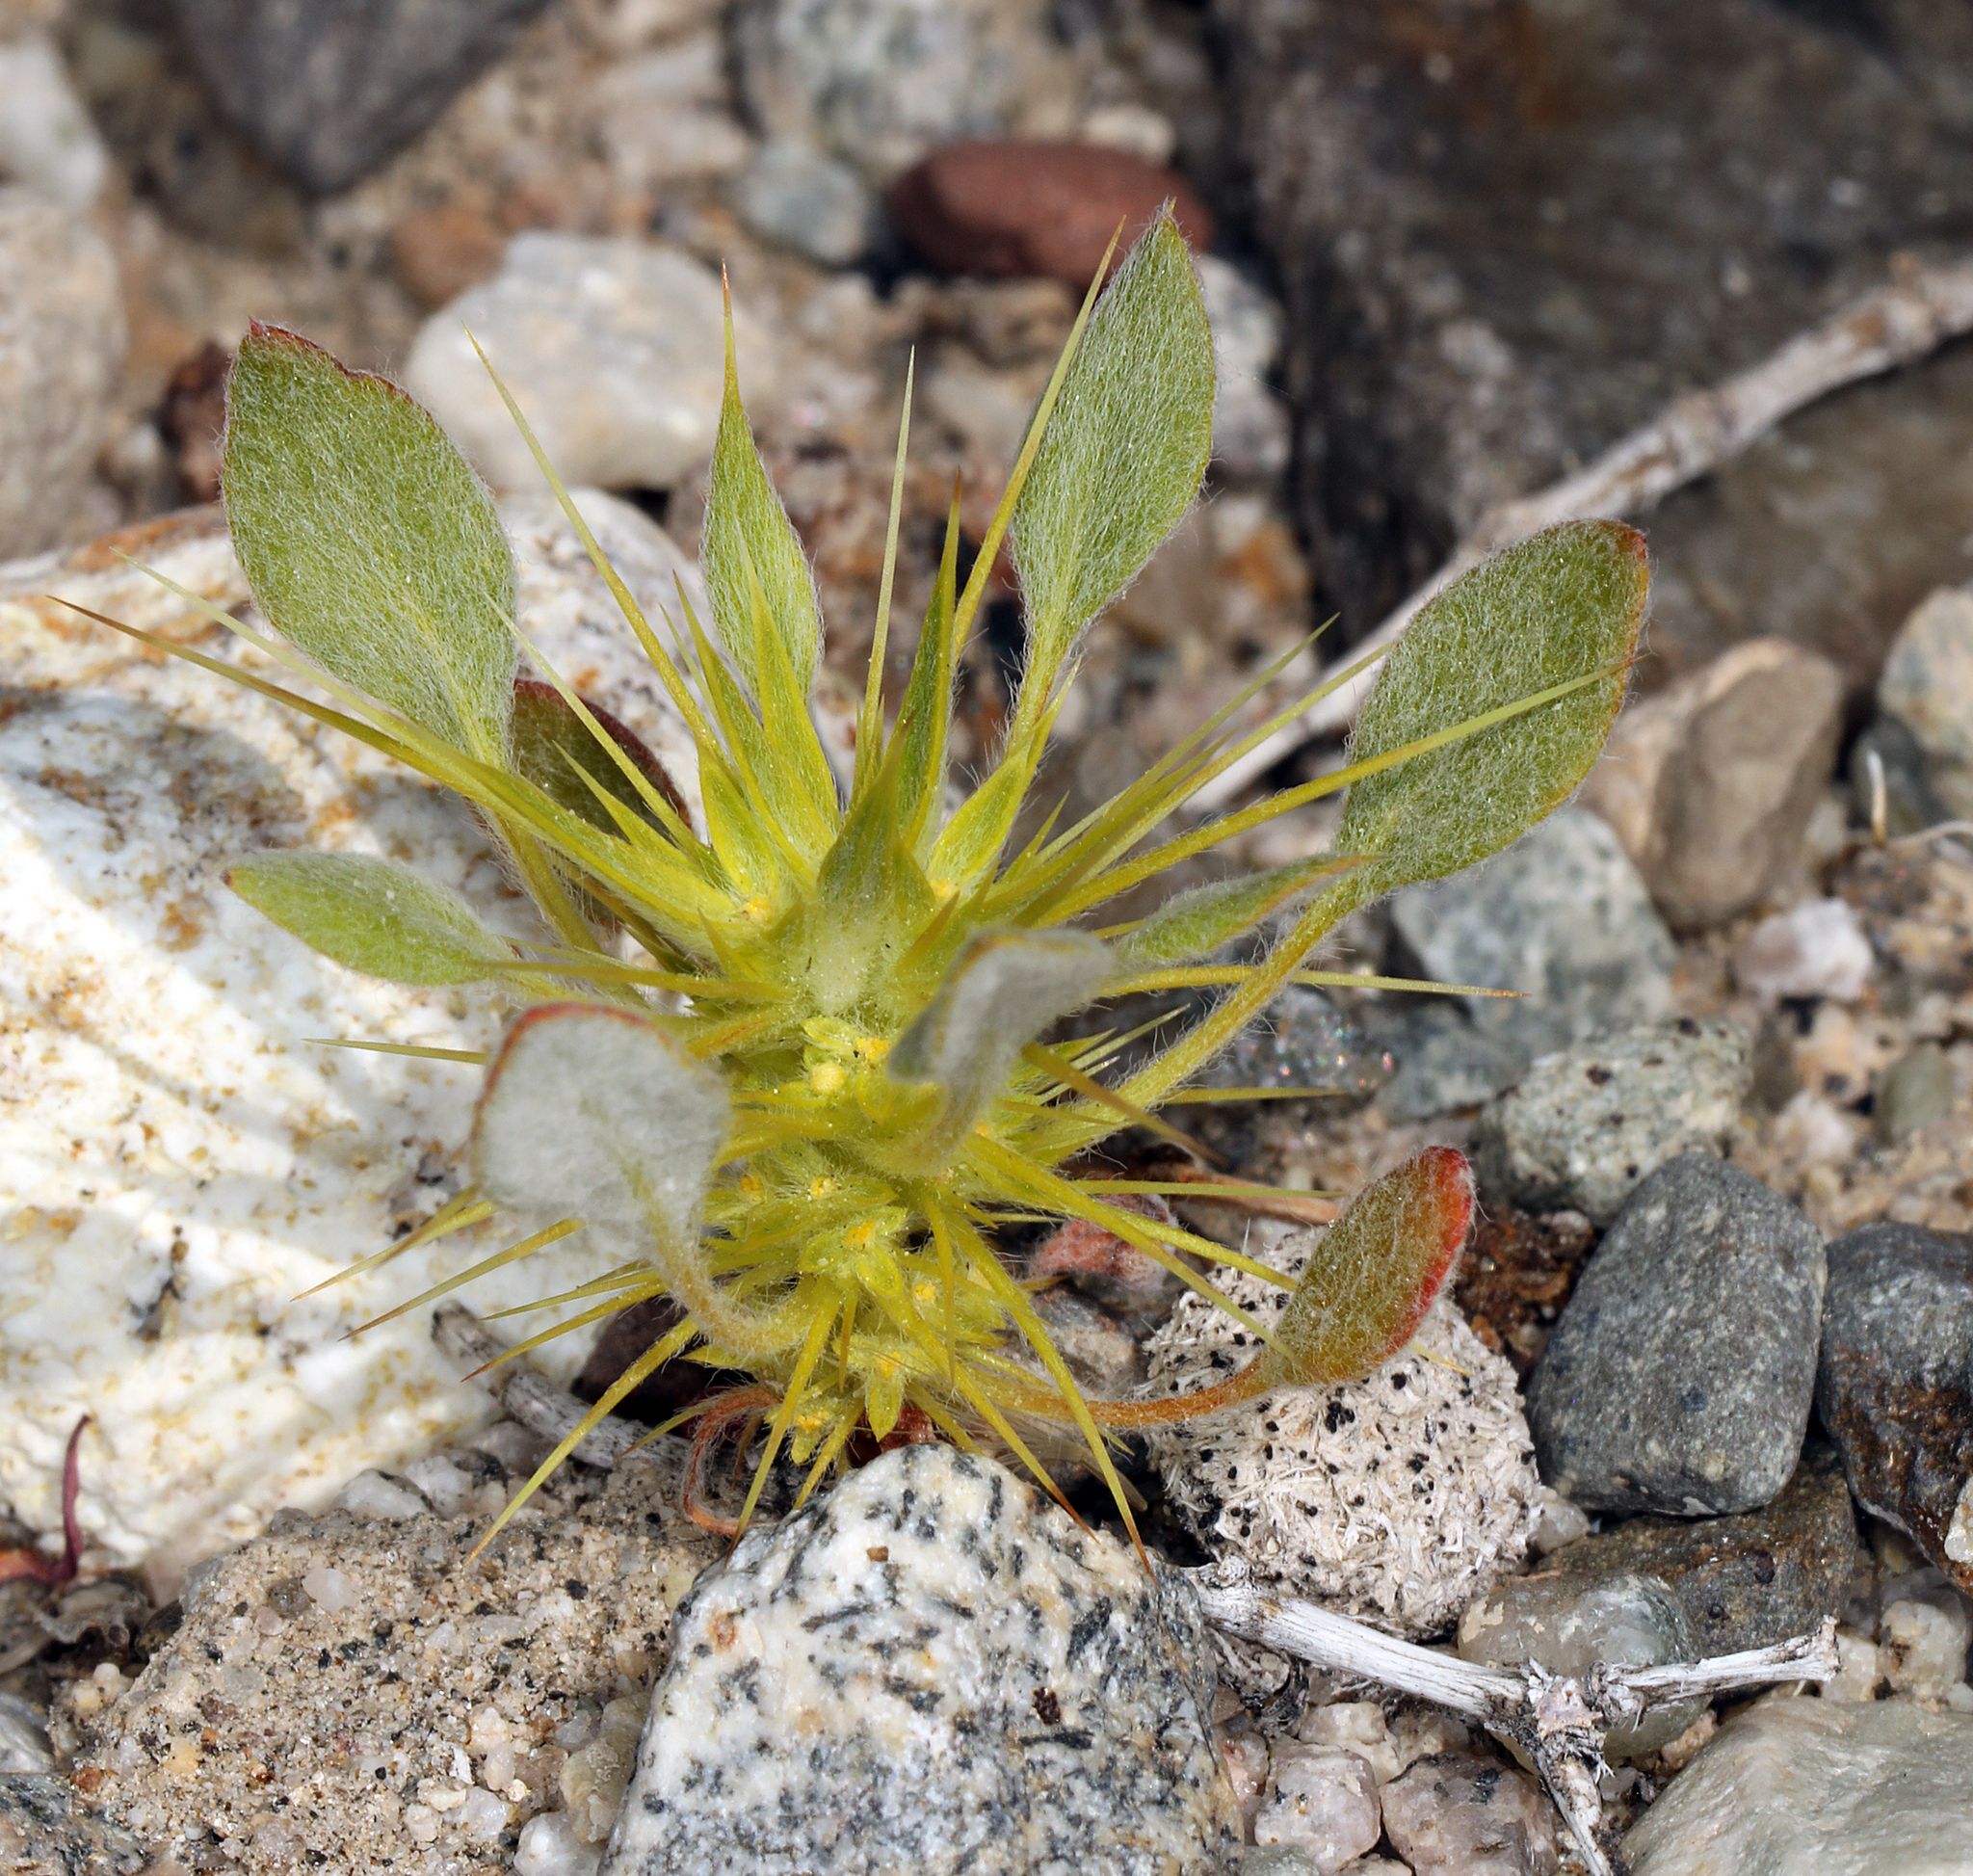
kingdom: Plantae
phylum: Tracheophyta
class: Magnoliopsida
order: Caryophyllales
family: Polygonaceae
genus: Chorizanthe
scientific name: Chorizanthe rigida
